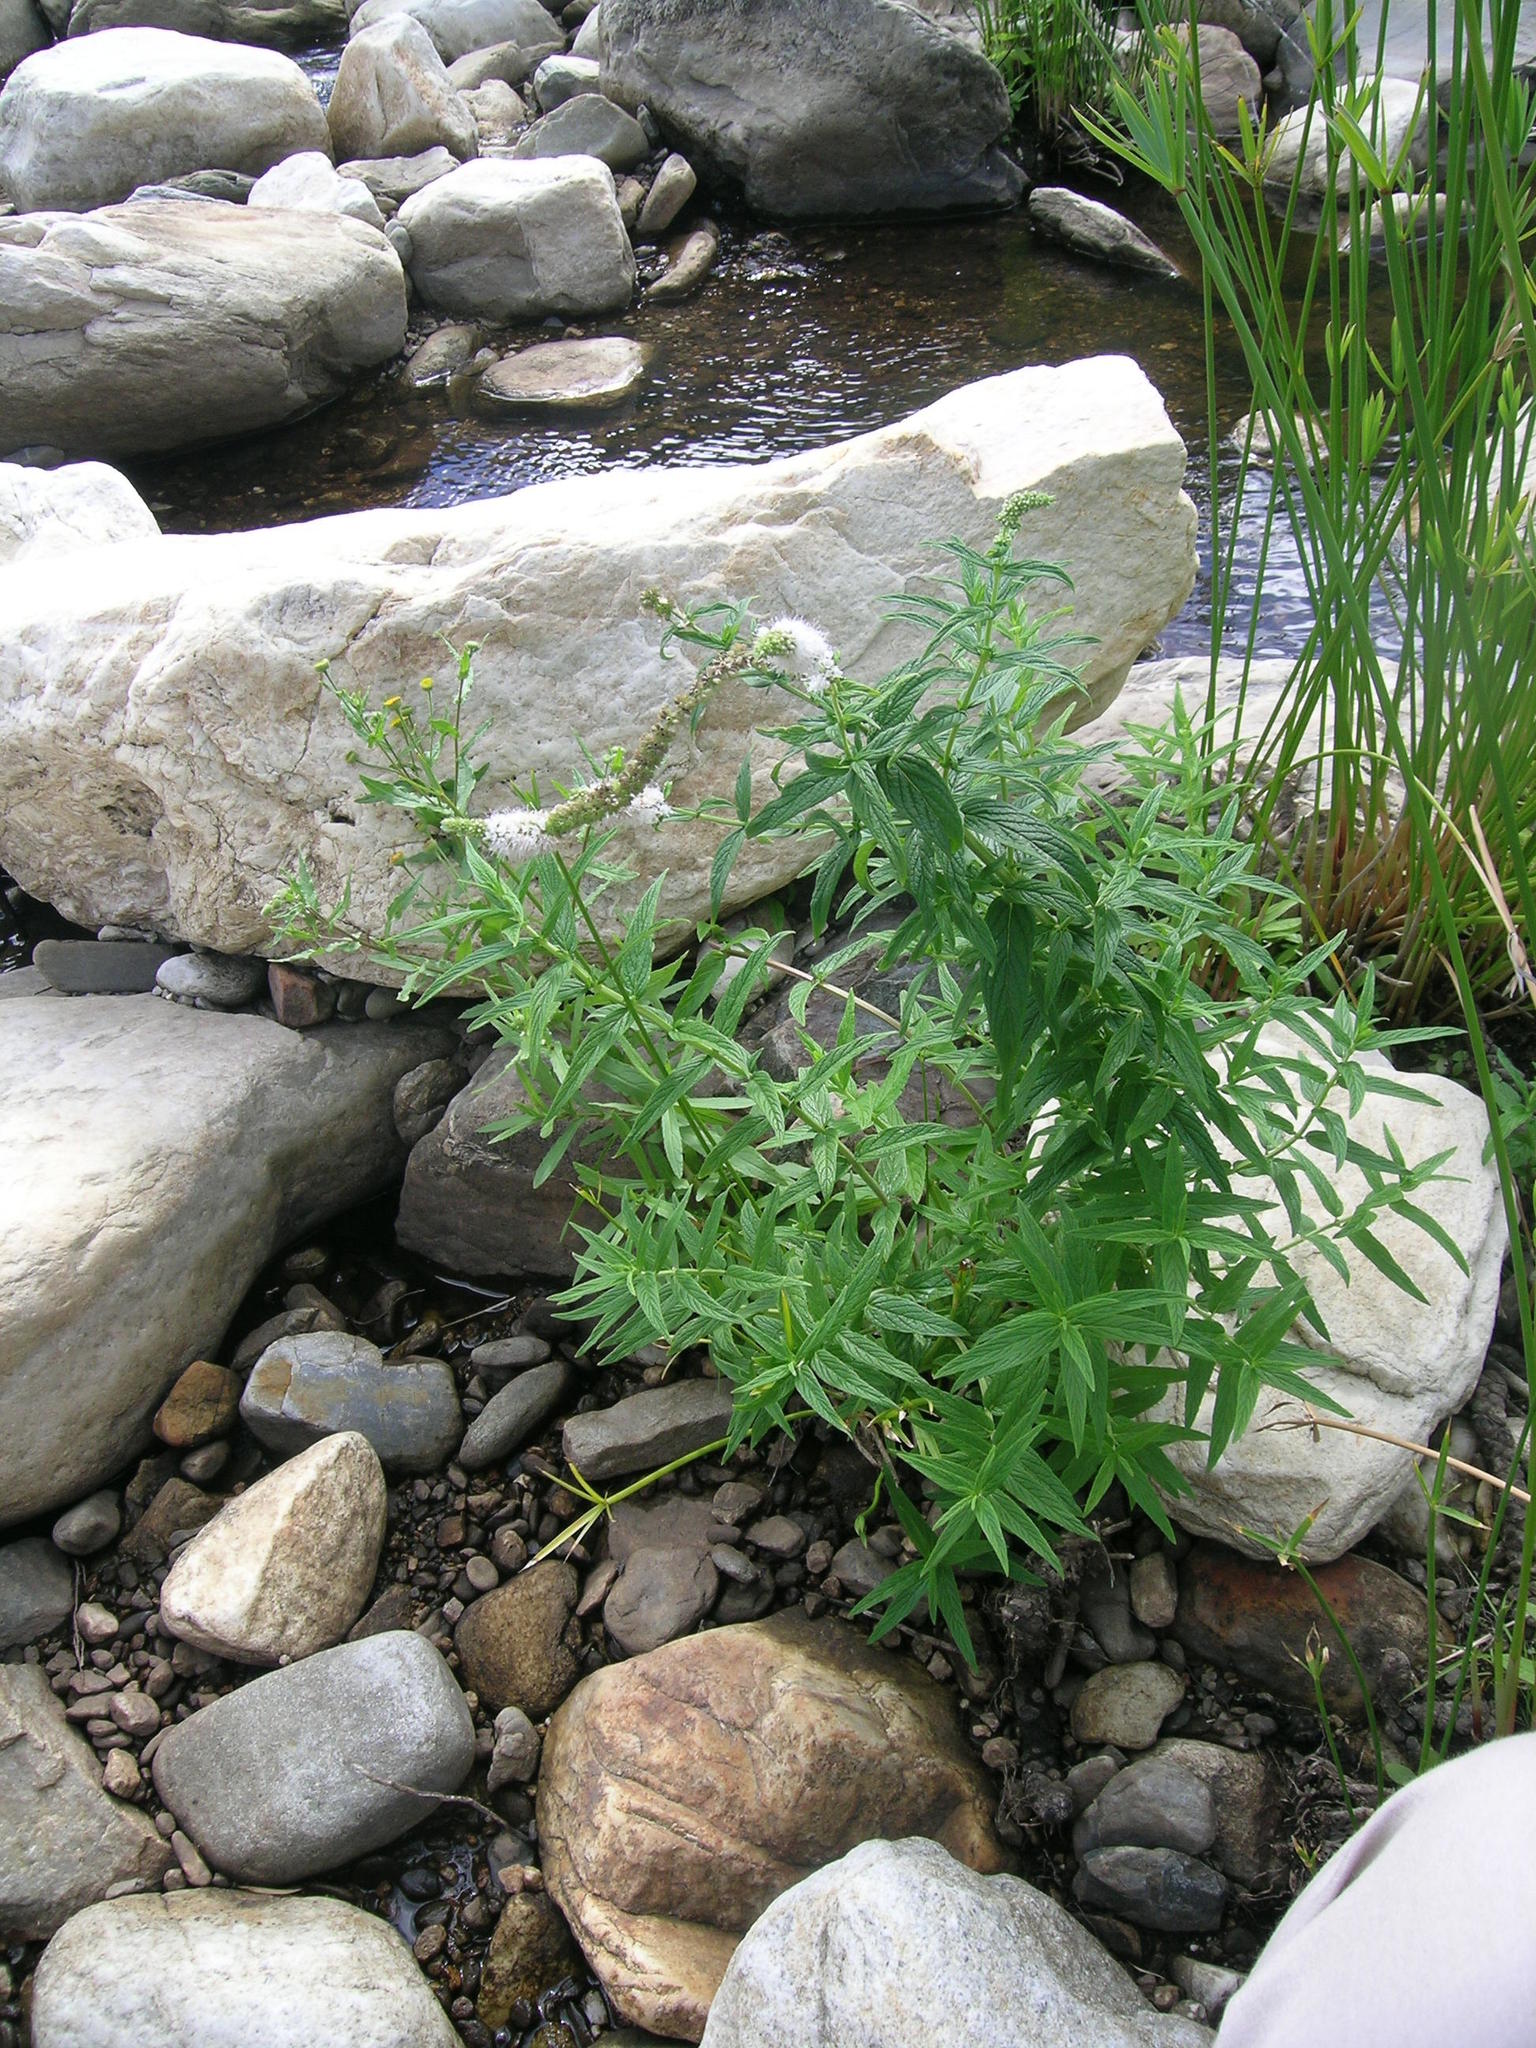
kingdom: Plantae
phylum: Tracheophyta
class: Magnoliopsida
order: Lamiales
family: Lamiaceae
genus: Mentha
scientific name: Mentha longifolia
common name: Horse mint
